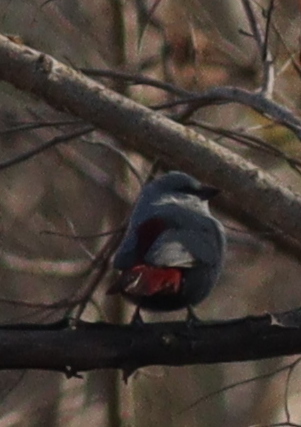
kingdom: Animalia
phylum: Chordata
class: Aves
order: Passeriformes
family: Estrildidae
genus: Estrilda
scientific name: Estrilda caerulescens
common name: Lavender waxbill
